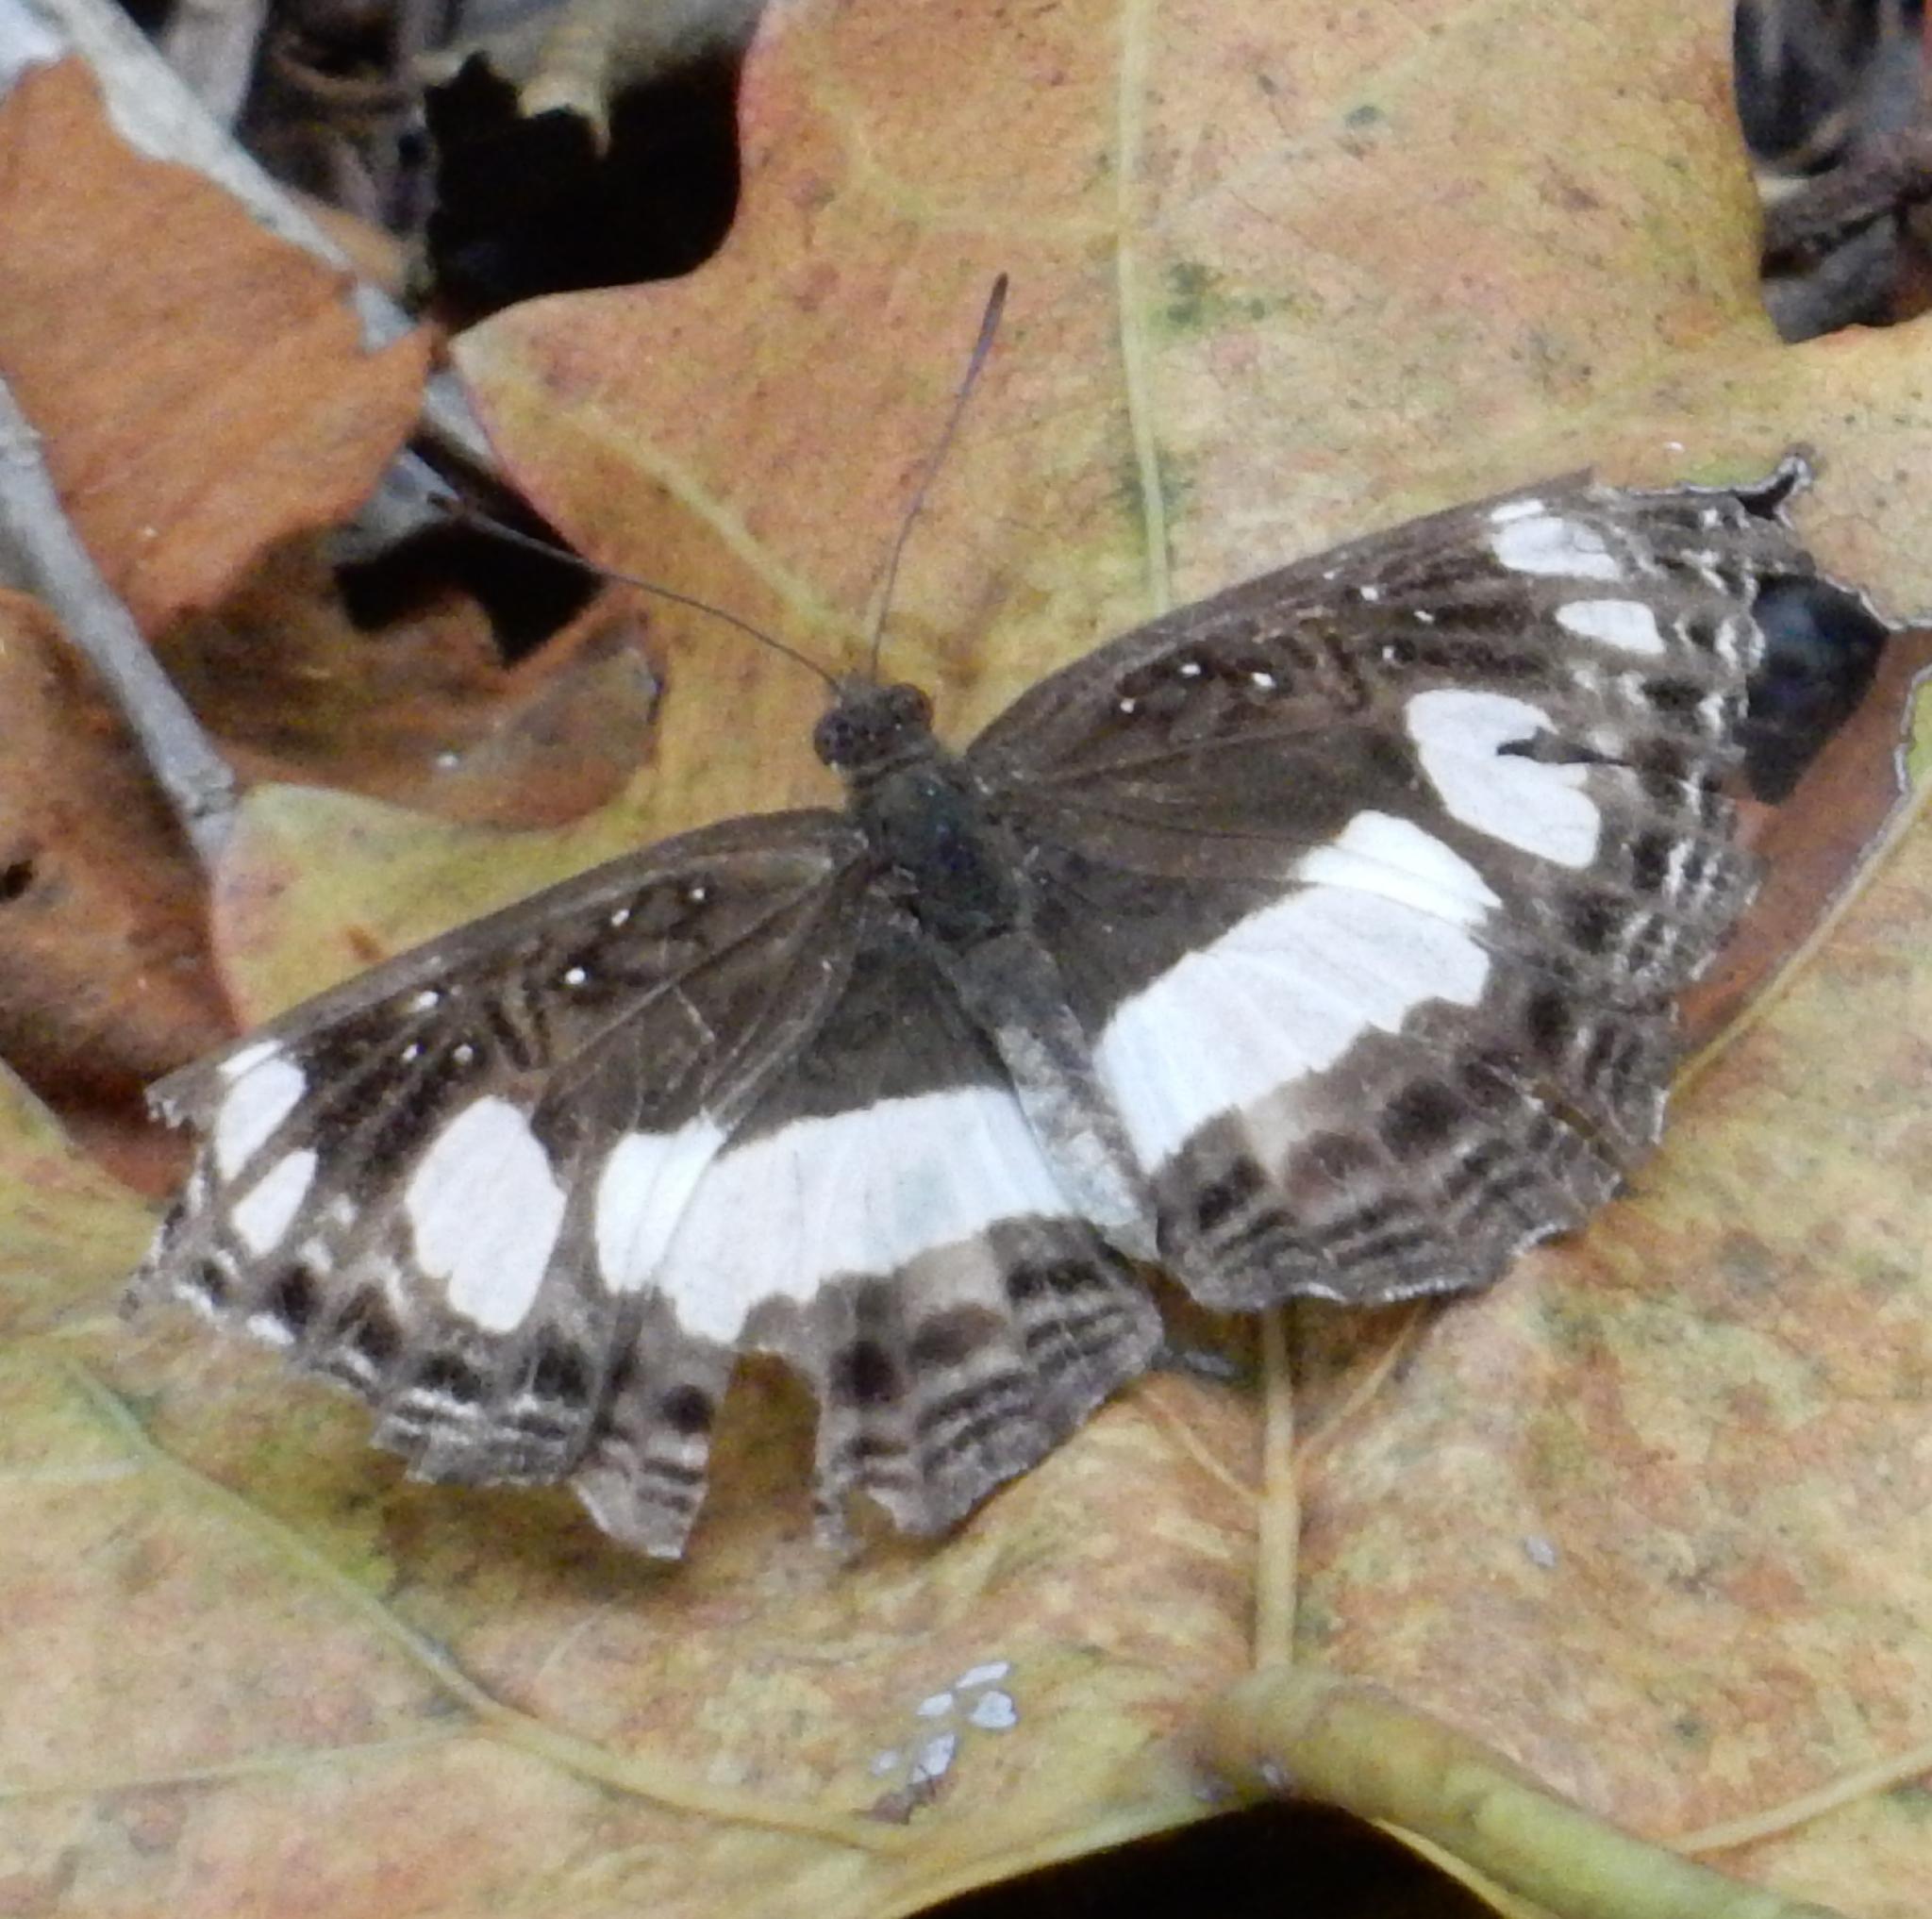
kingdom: Animalia
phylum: Arthropoda
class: Insecta
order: Lepidoptera
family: Nymphalidae
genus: Neptis
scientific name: Neptis saclava
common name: Small spotted sailor
